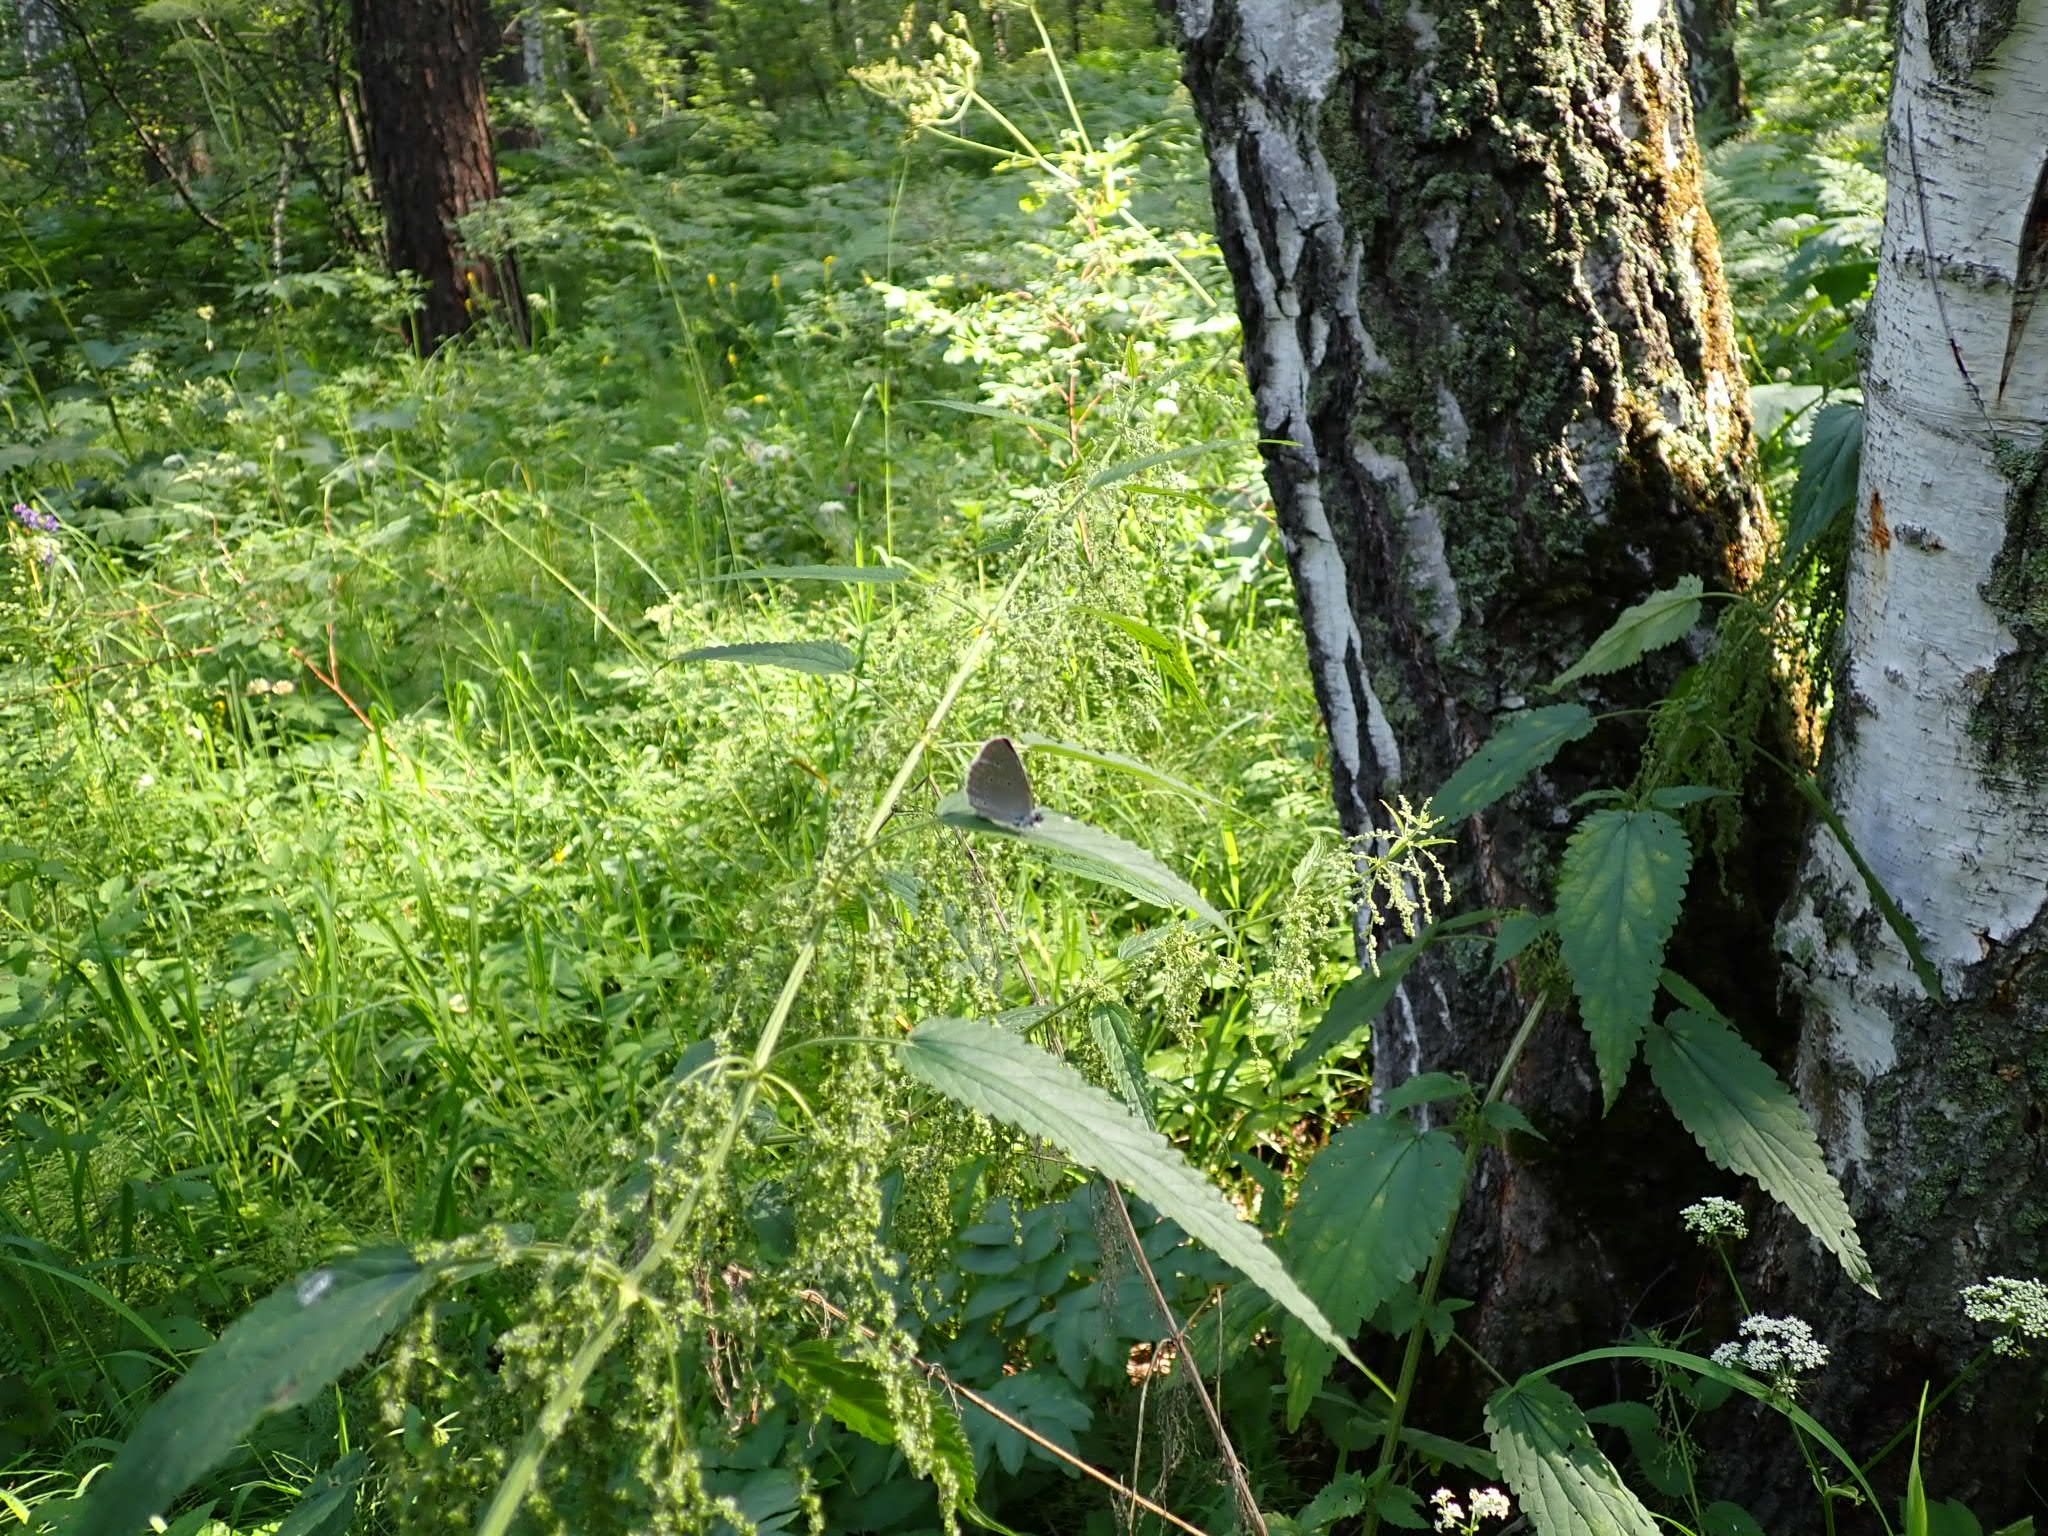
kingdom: Animalia
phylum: Arthropoda
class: Insecta
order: Lepidoptera
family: Lycaenidae
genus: Phengaris
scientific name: Phengaris teleius
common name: Scarce large blue
